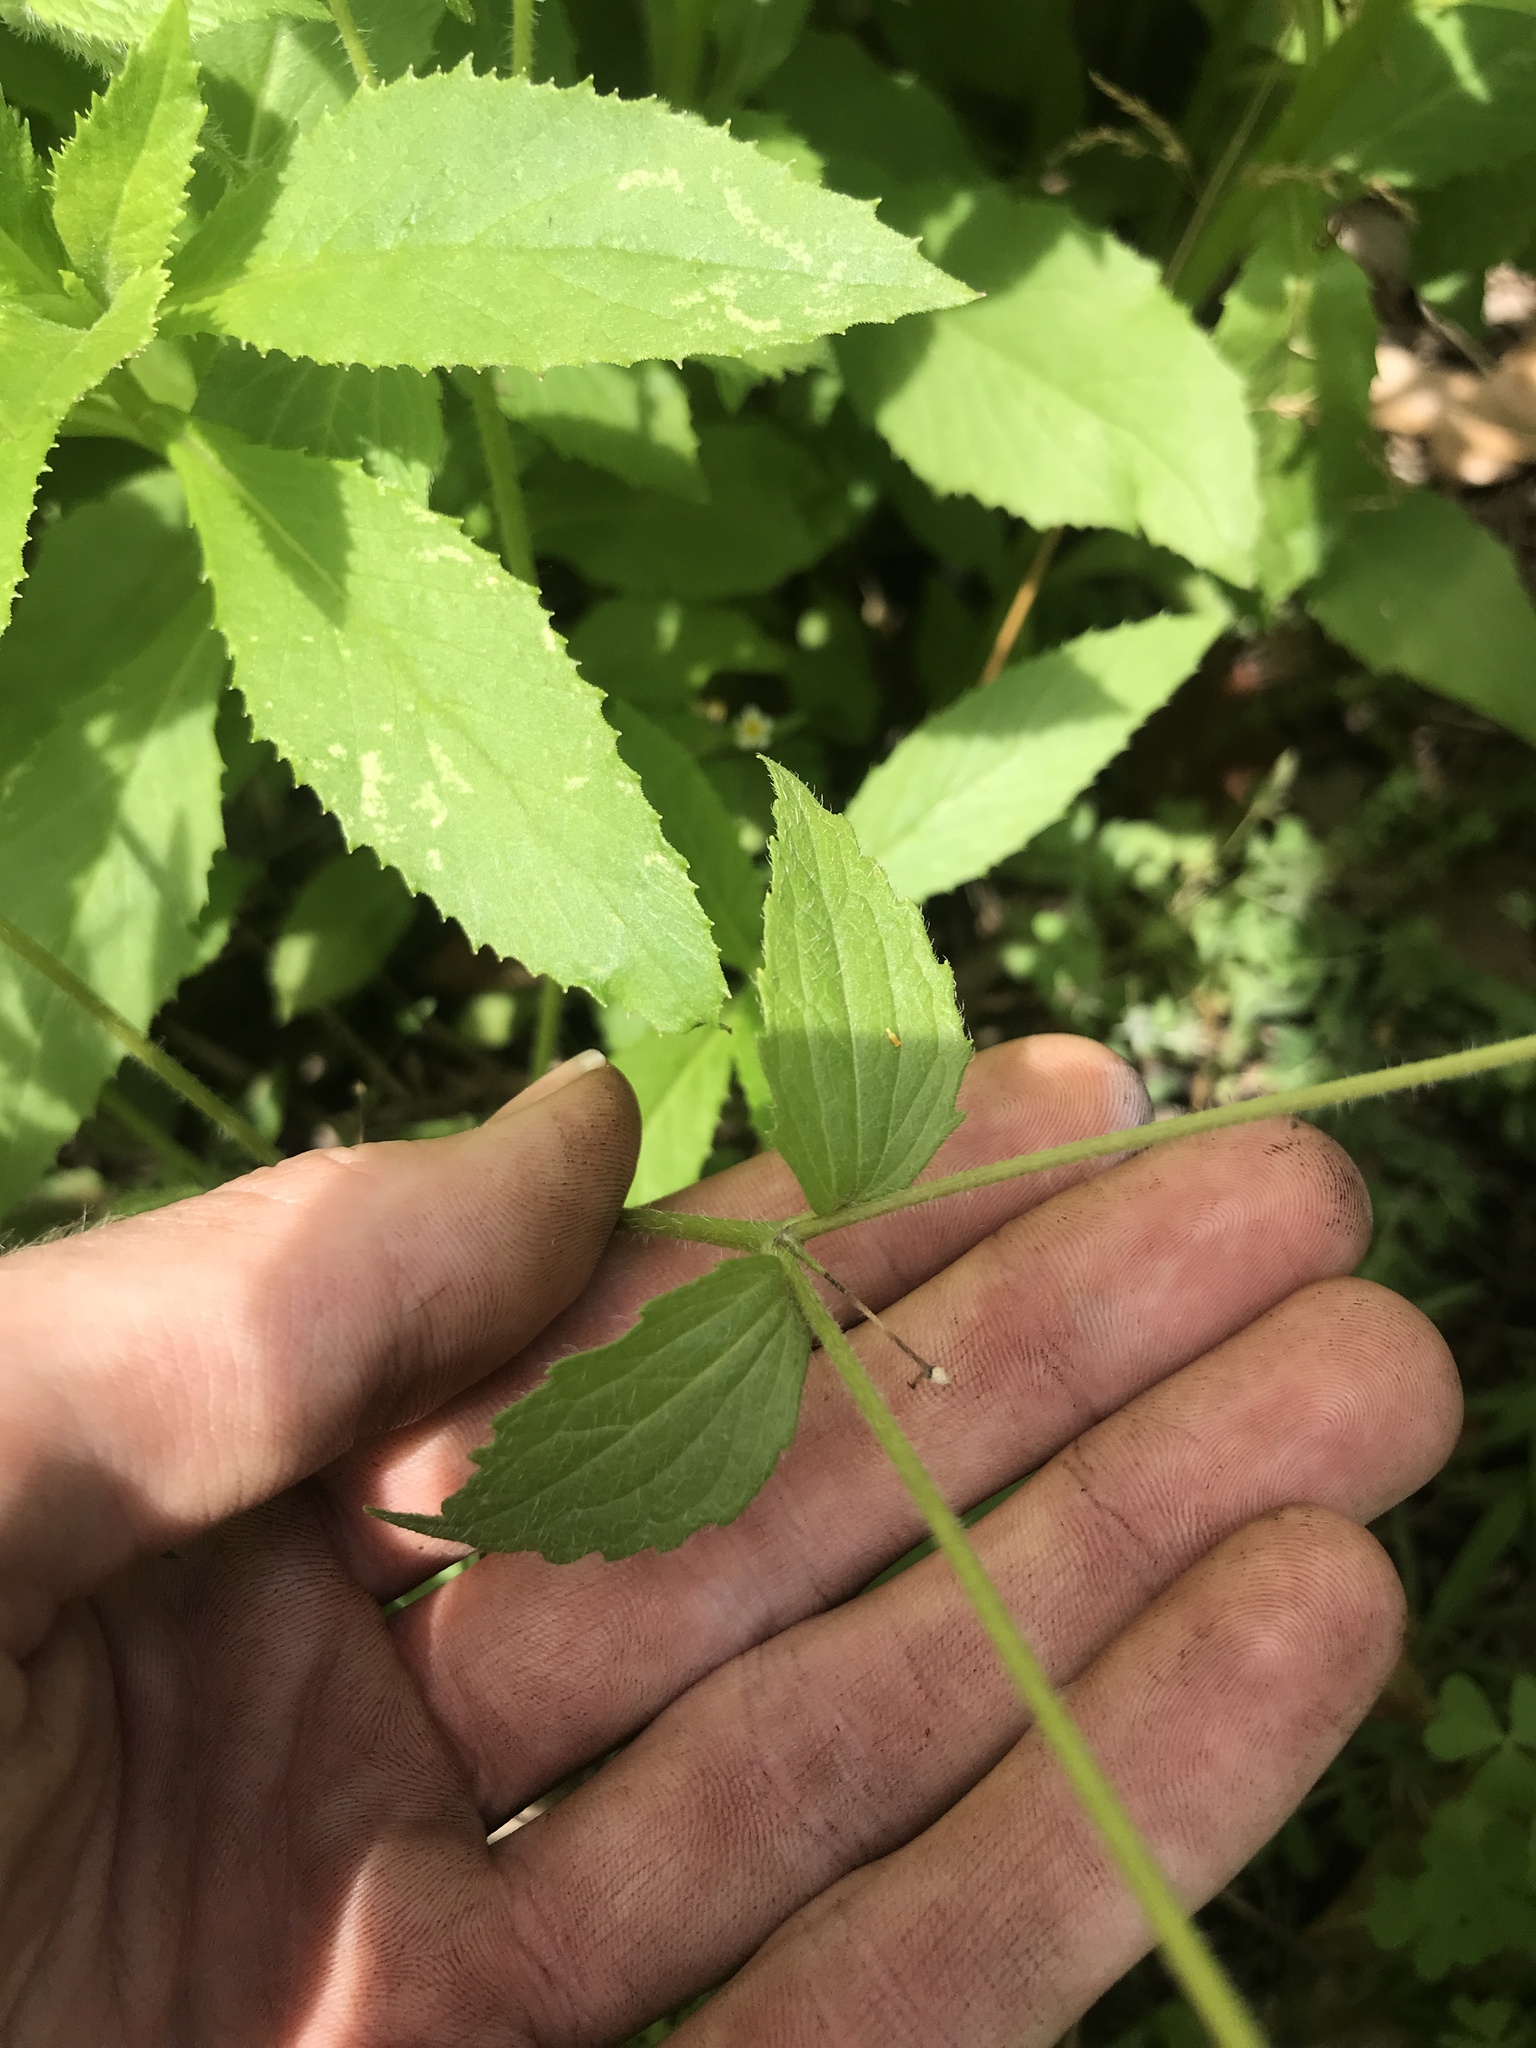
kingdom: Plantae
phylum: Tracheophyta
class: Magnoliopsida
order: Asterales
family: Asteraceae
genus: Galinsoga
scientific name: Galinsoga quadriradiata
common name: Shaggy soldier
